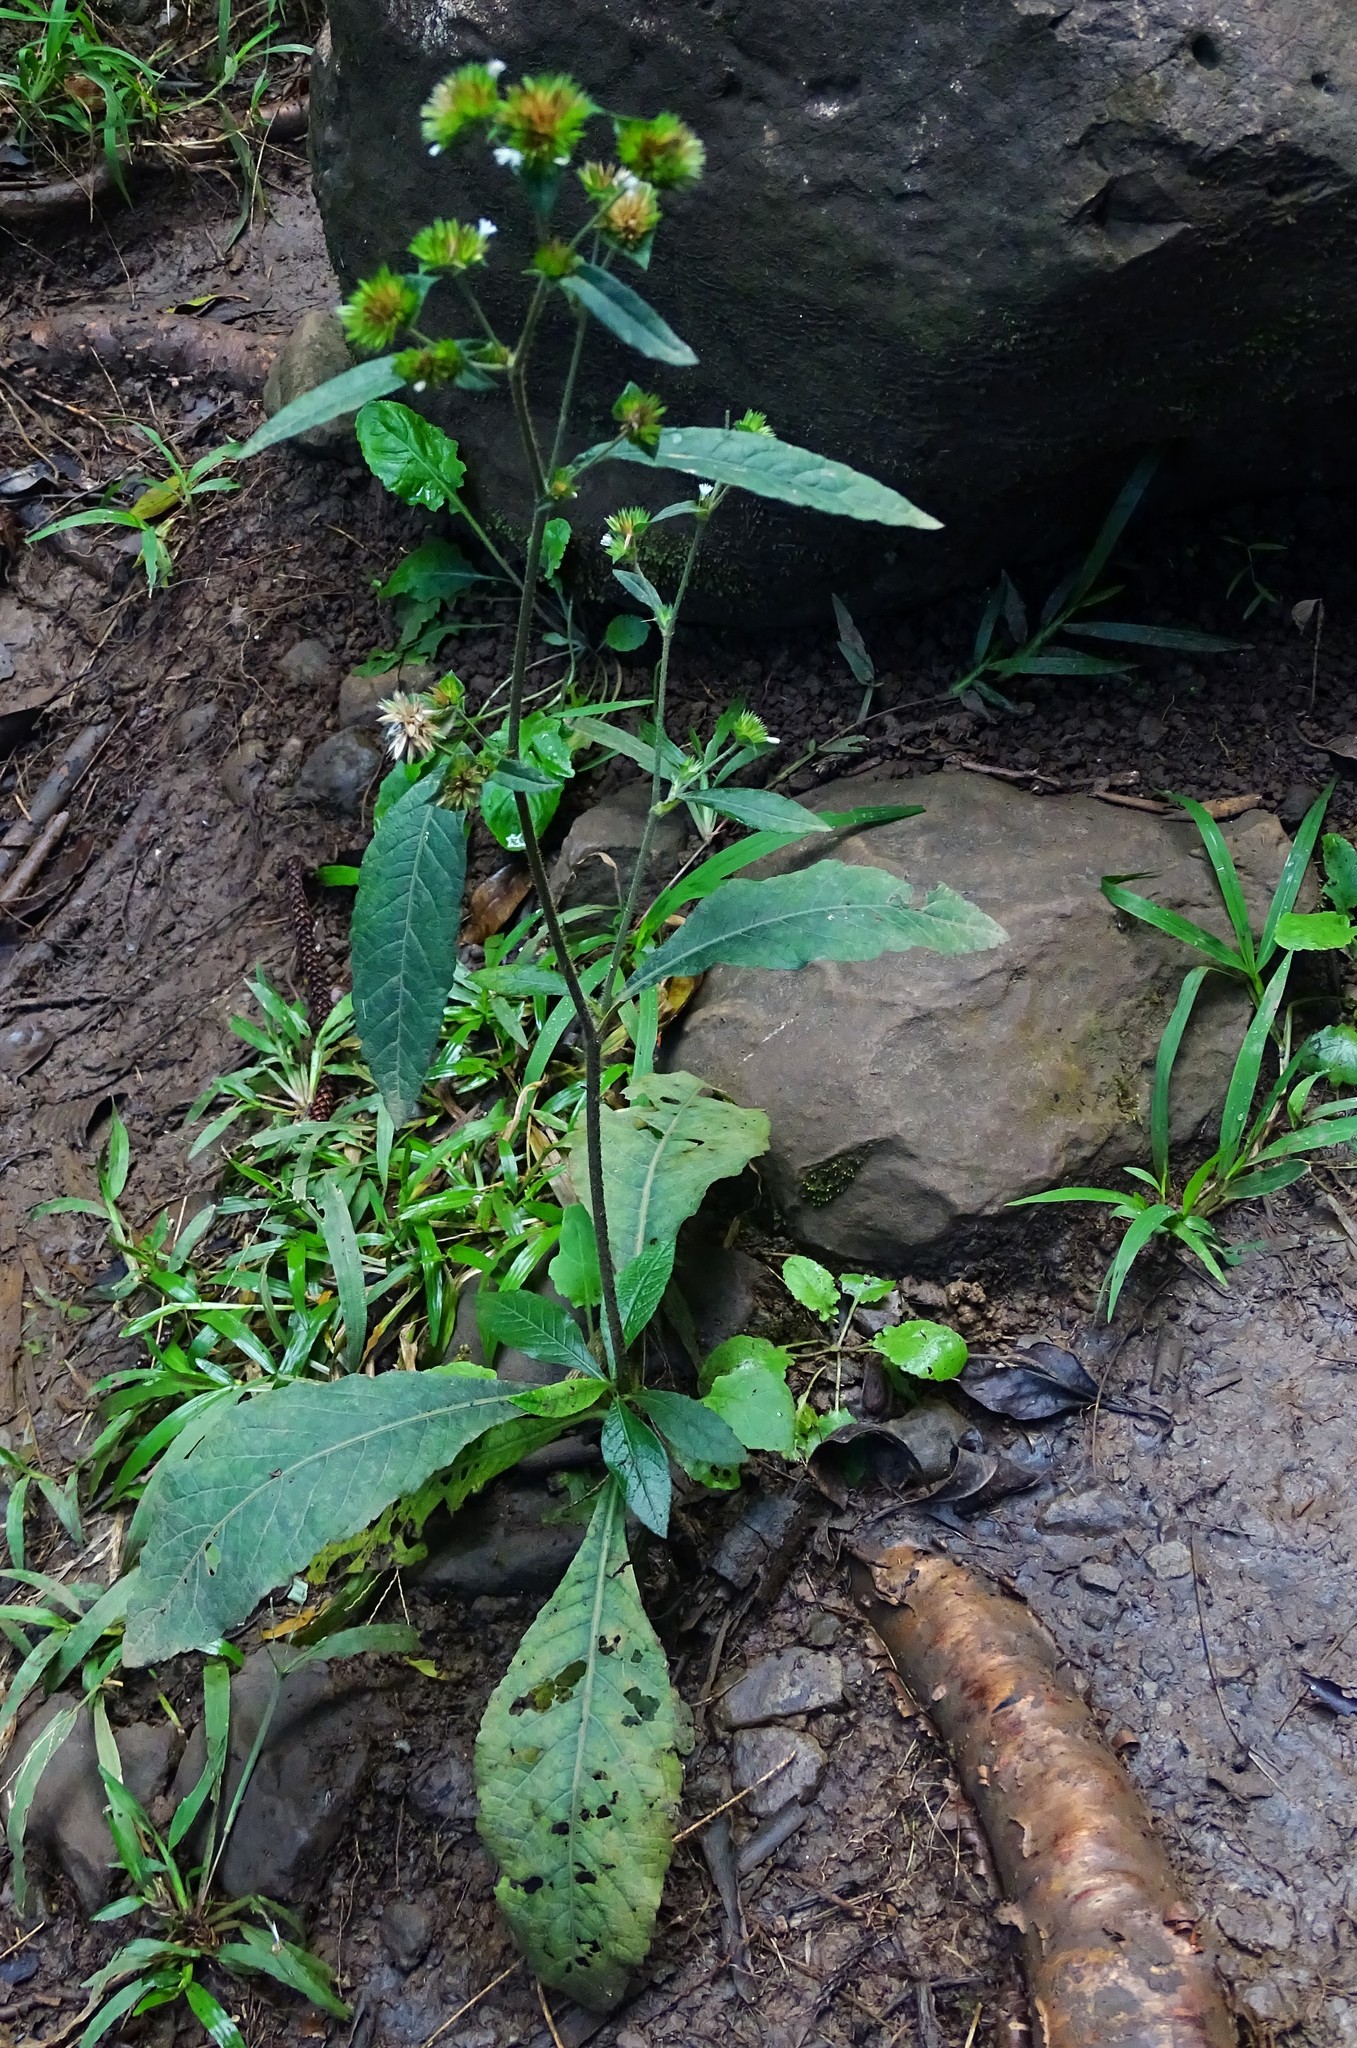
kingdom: Plantae
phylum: Tracheophyta
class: Magnoliopsida
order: Asterales
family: Asteraceae
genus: Elephantopus
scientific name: Elephantopus mollis
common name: Soft elephantsfoot
